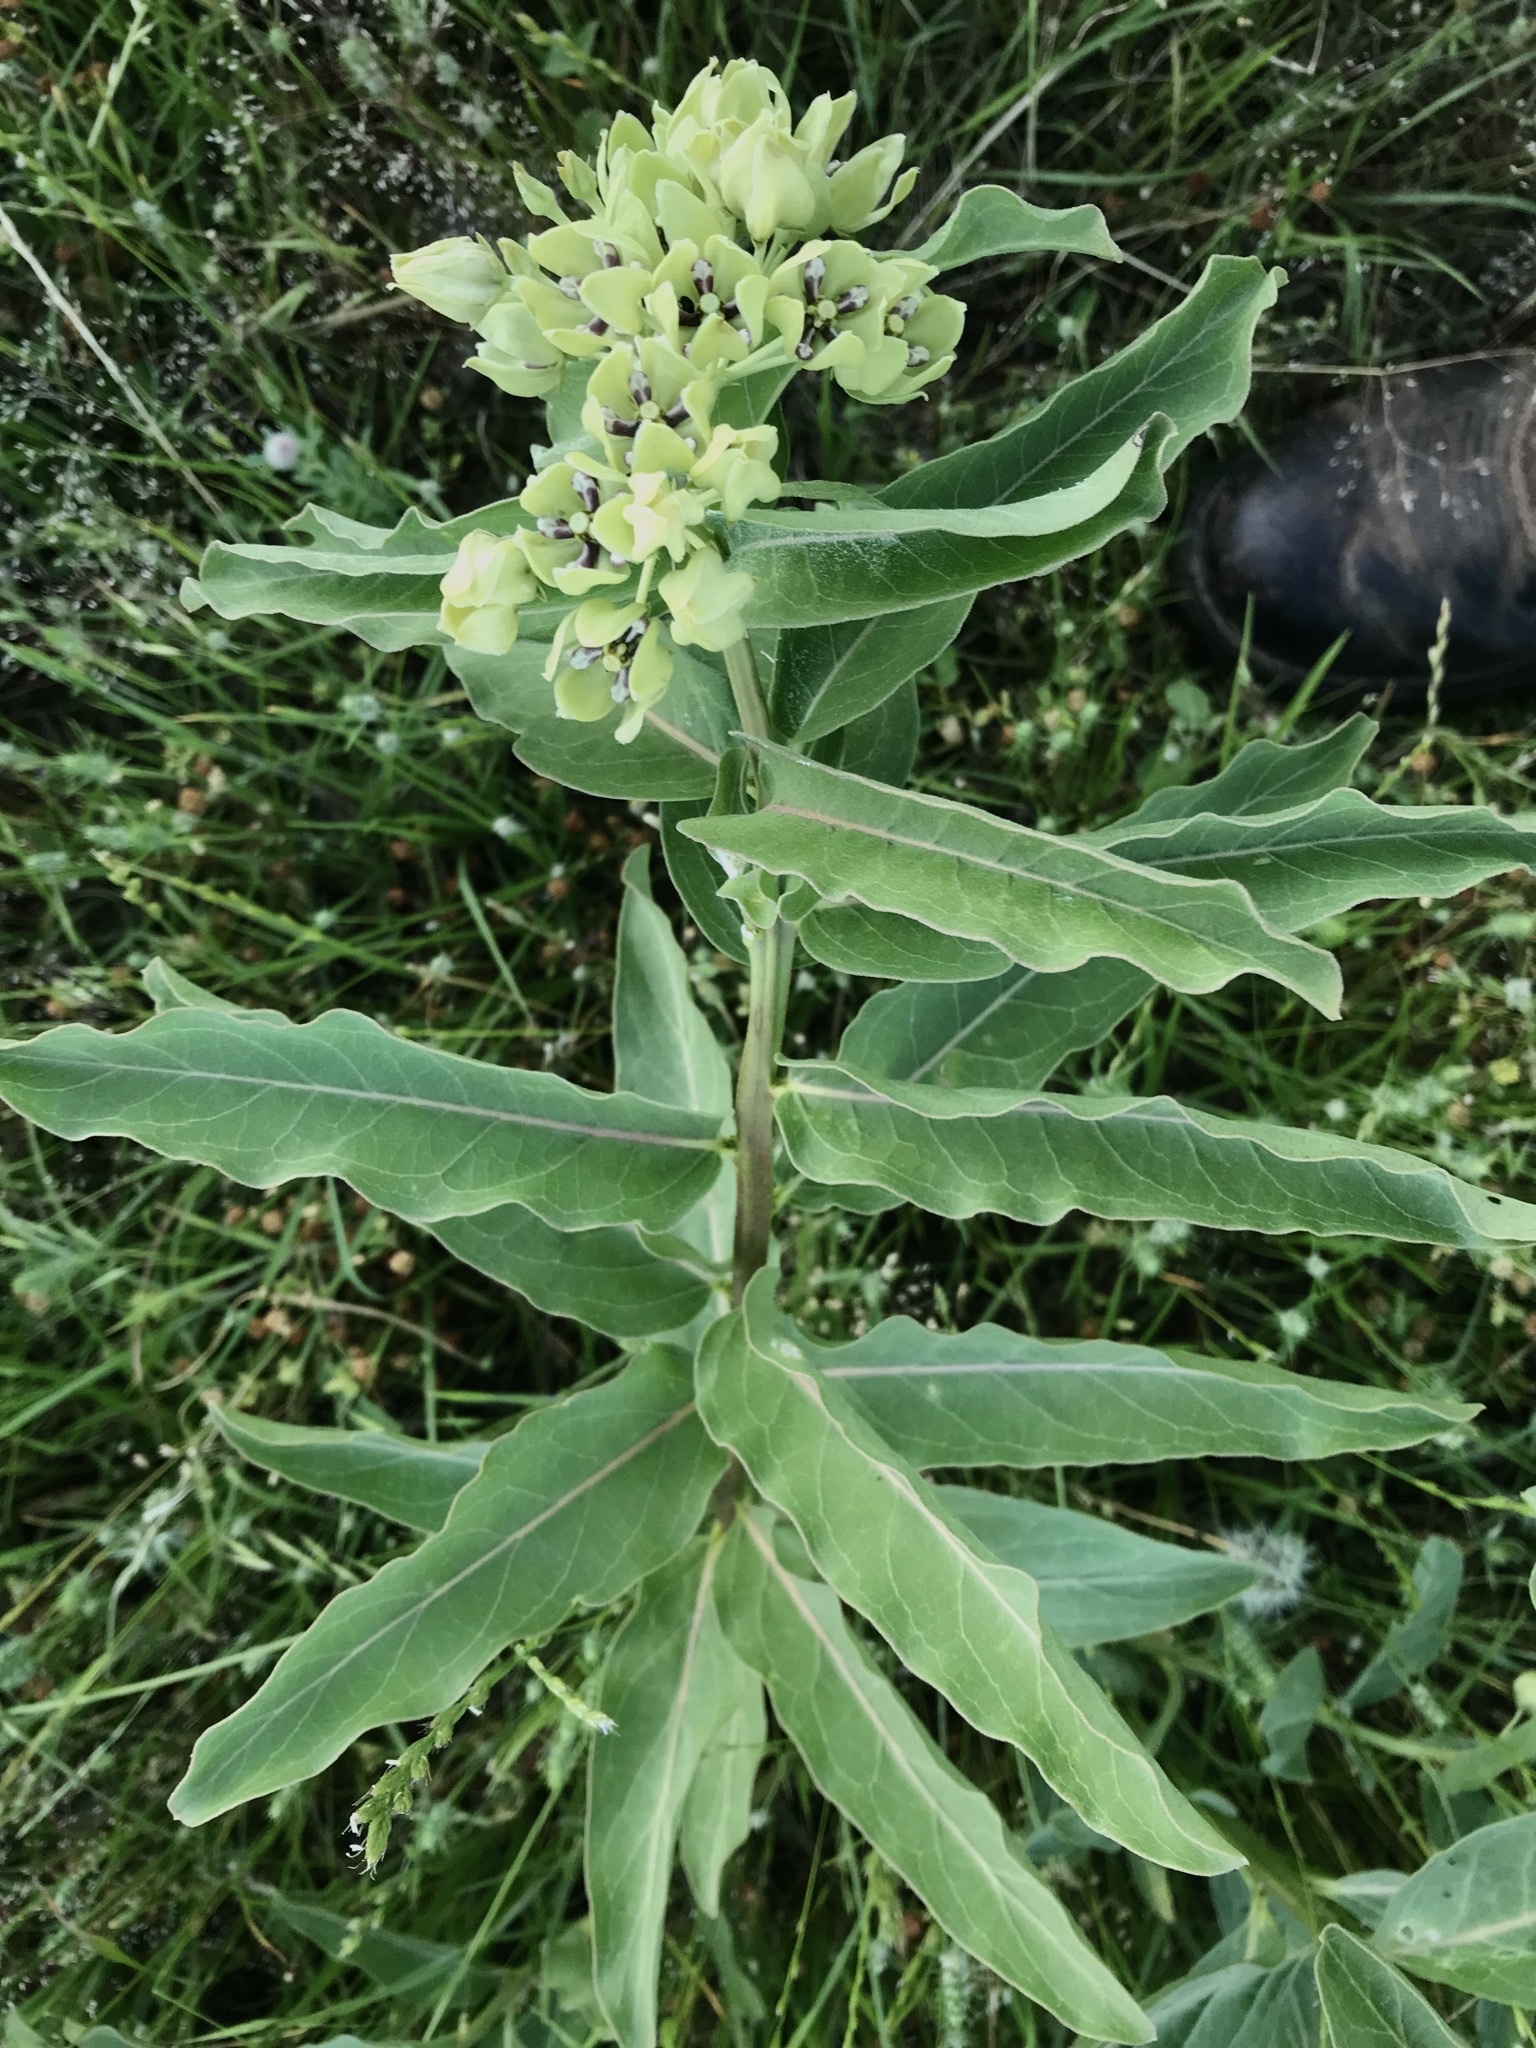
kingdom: Plantae
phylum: Tracheophyta
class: Magnoliopsida
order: Gentianales
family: Apocynaceae
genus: Asclepias
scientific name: Asclepias viridis
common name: Antelope-horns
